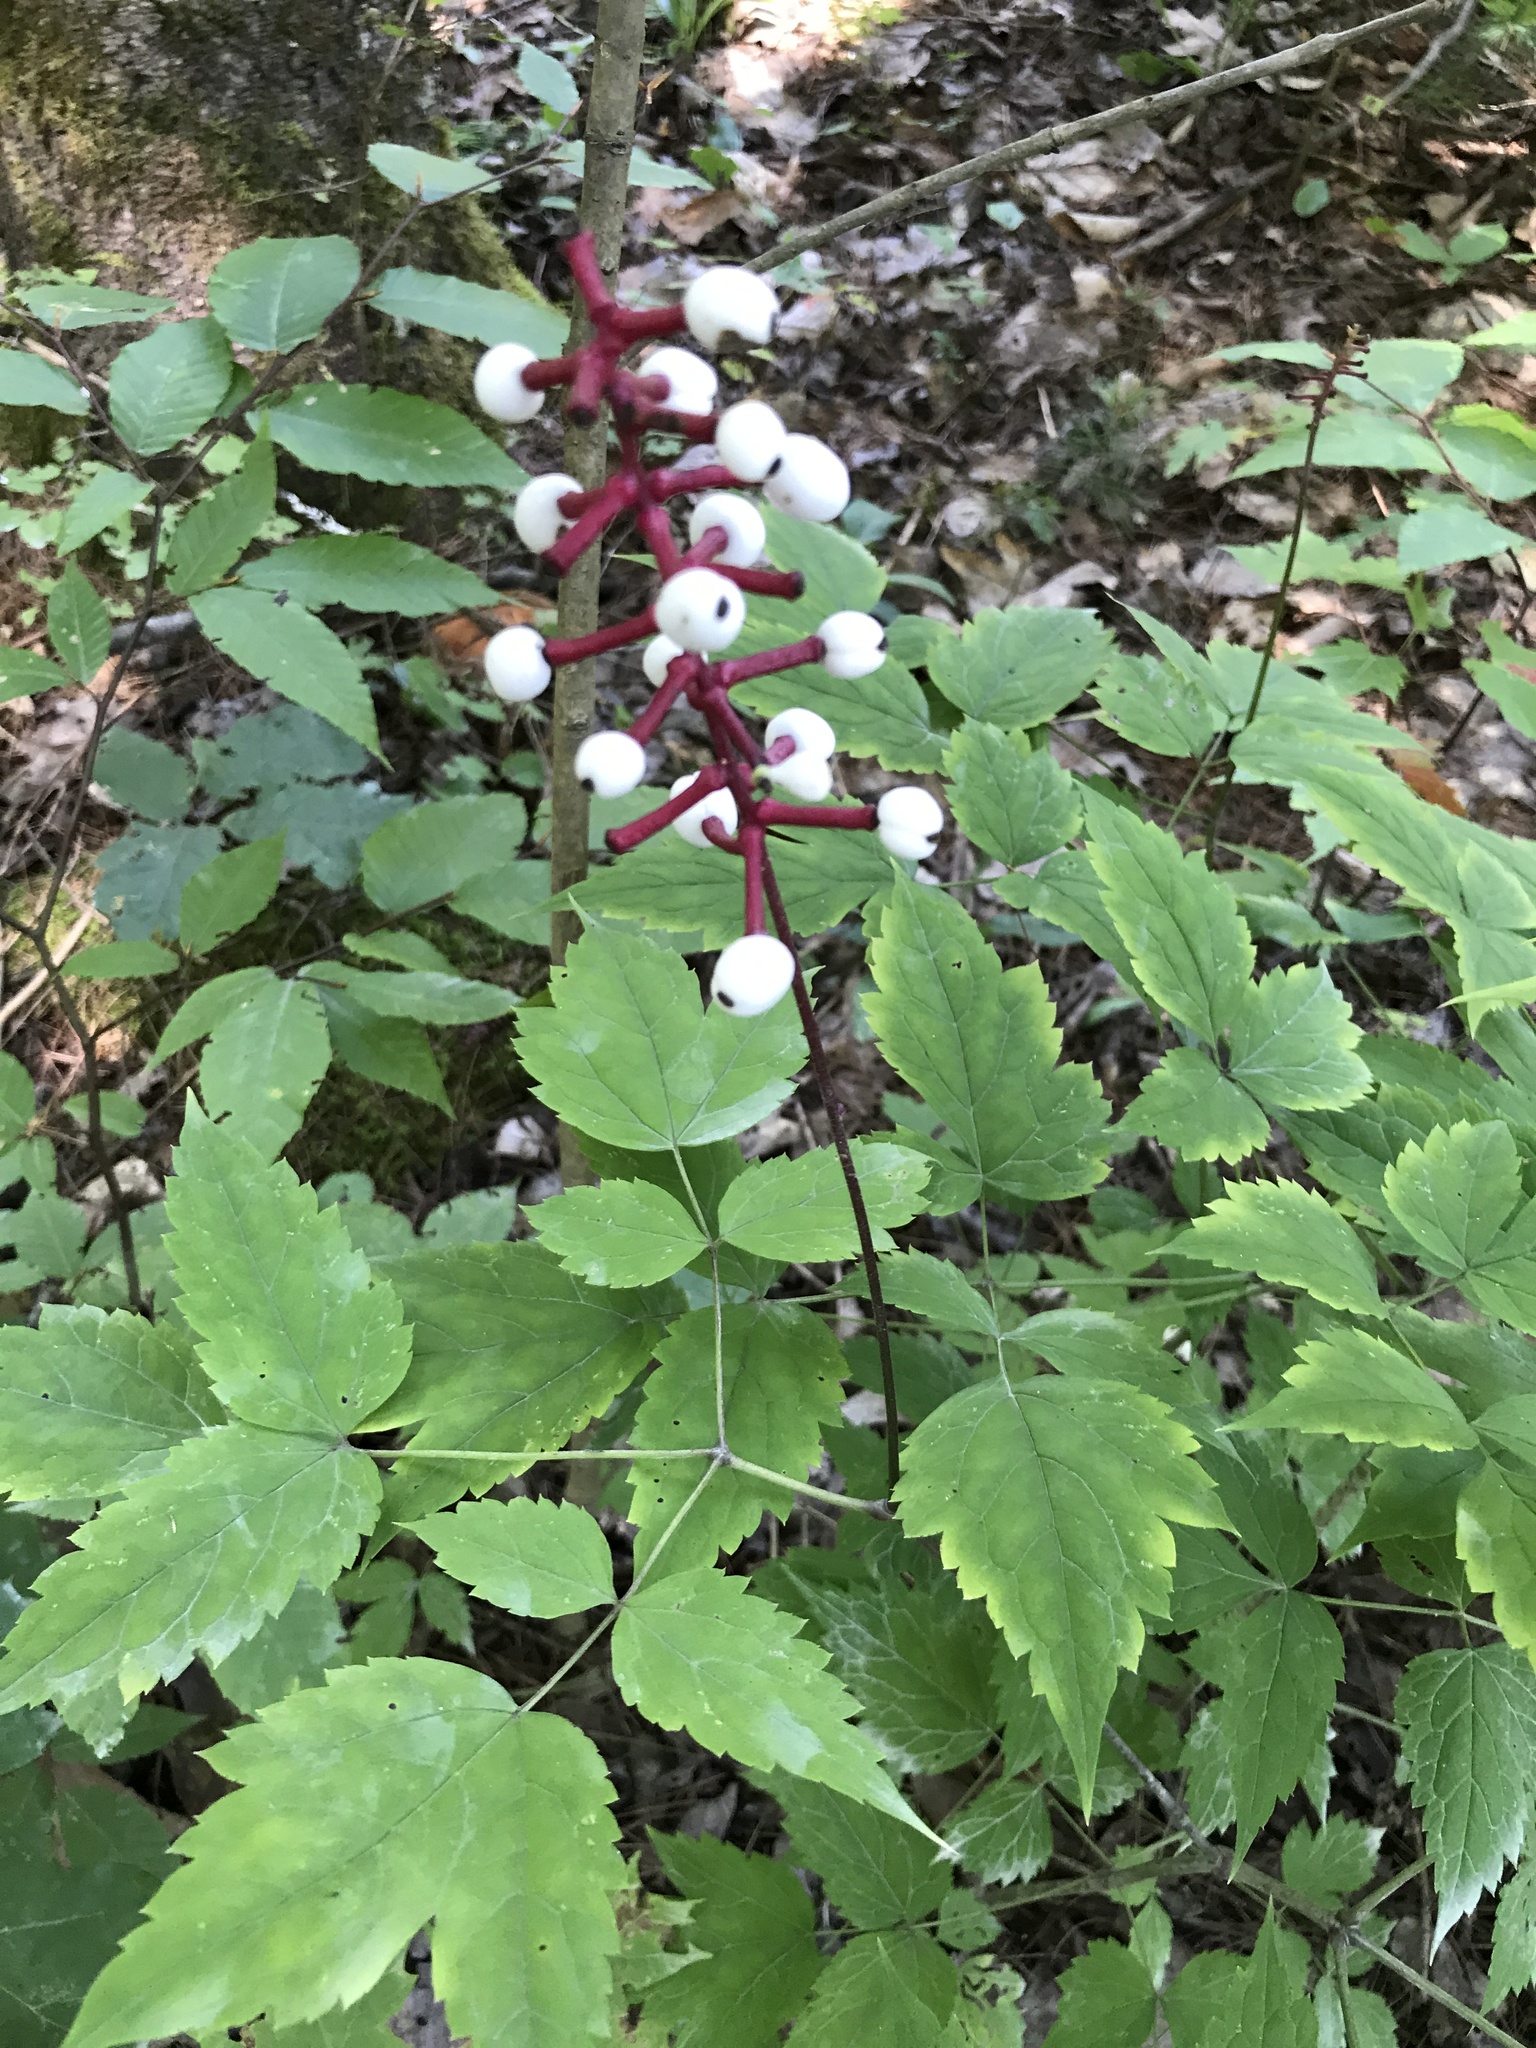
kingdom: Plantae
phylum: Tracheophyta
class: Magnoliopsida
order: Ranunculales
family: Ranunculaceae
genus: Actaea
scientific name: Actaea pachypoda
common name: Doll's-eyes
